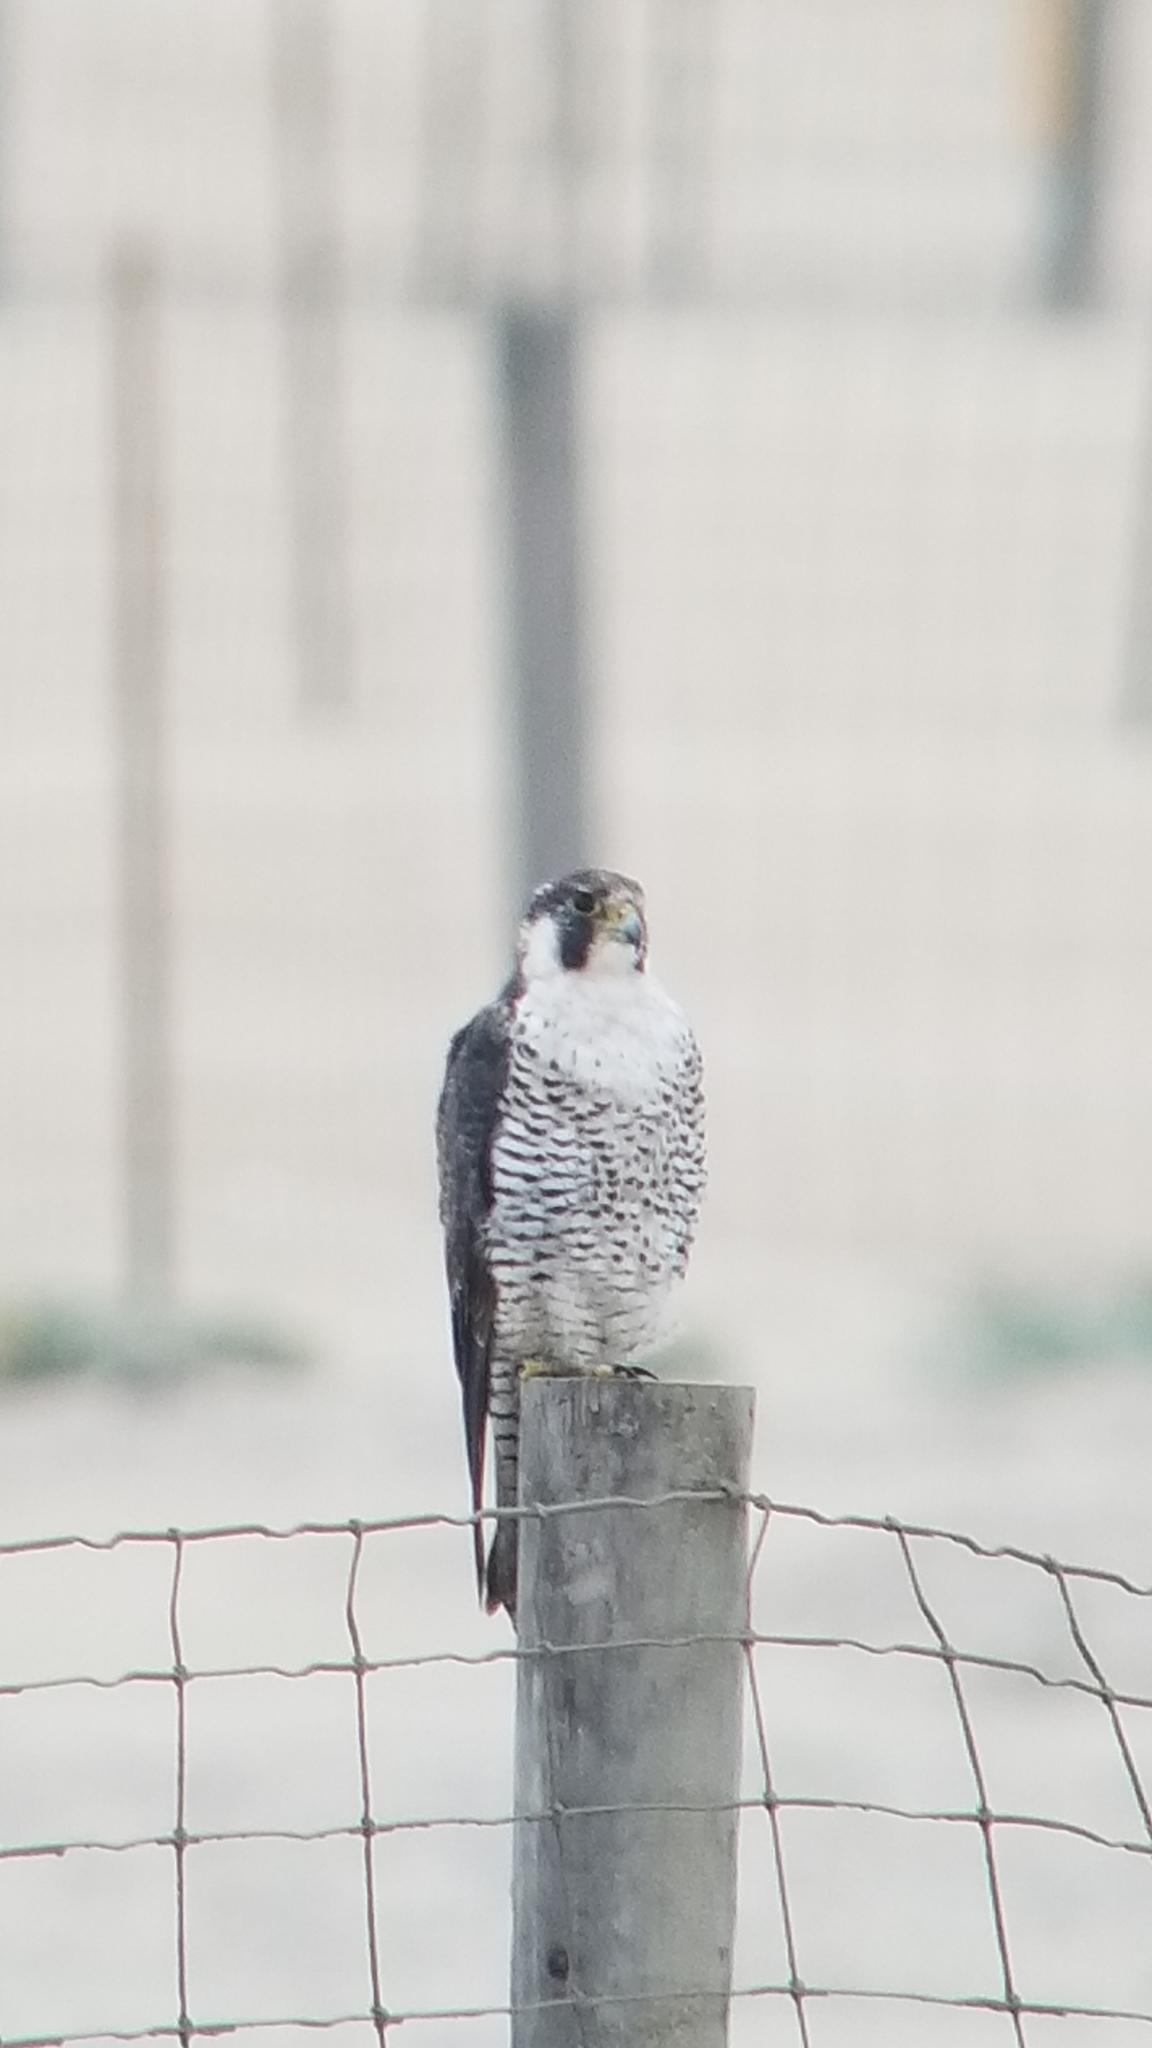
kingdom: Animalia
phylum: Chordata
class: Aves
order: Falconiformes
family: Falconidae
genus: Falco
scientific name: Falco peregrinus
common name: Peregrine falcon
